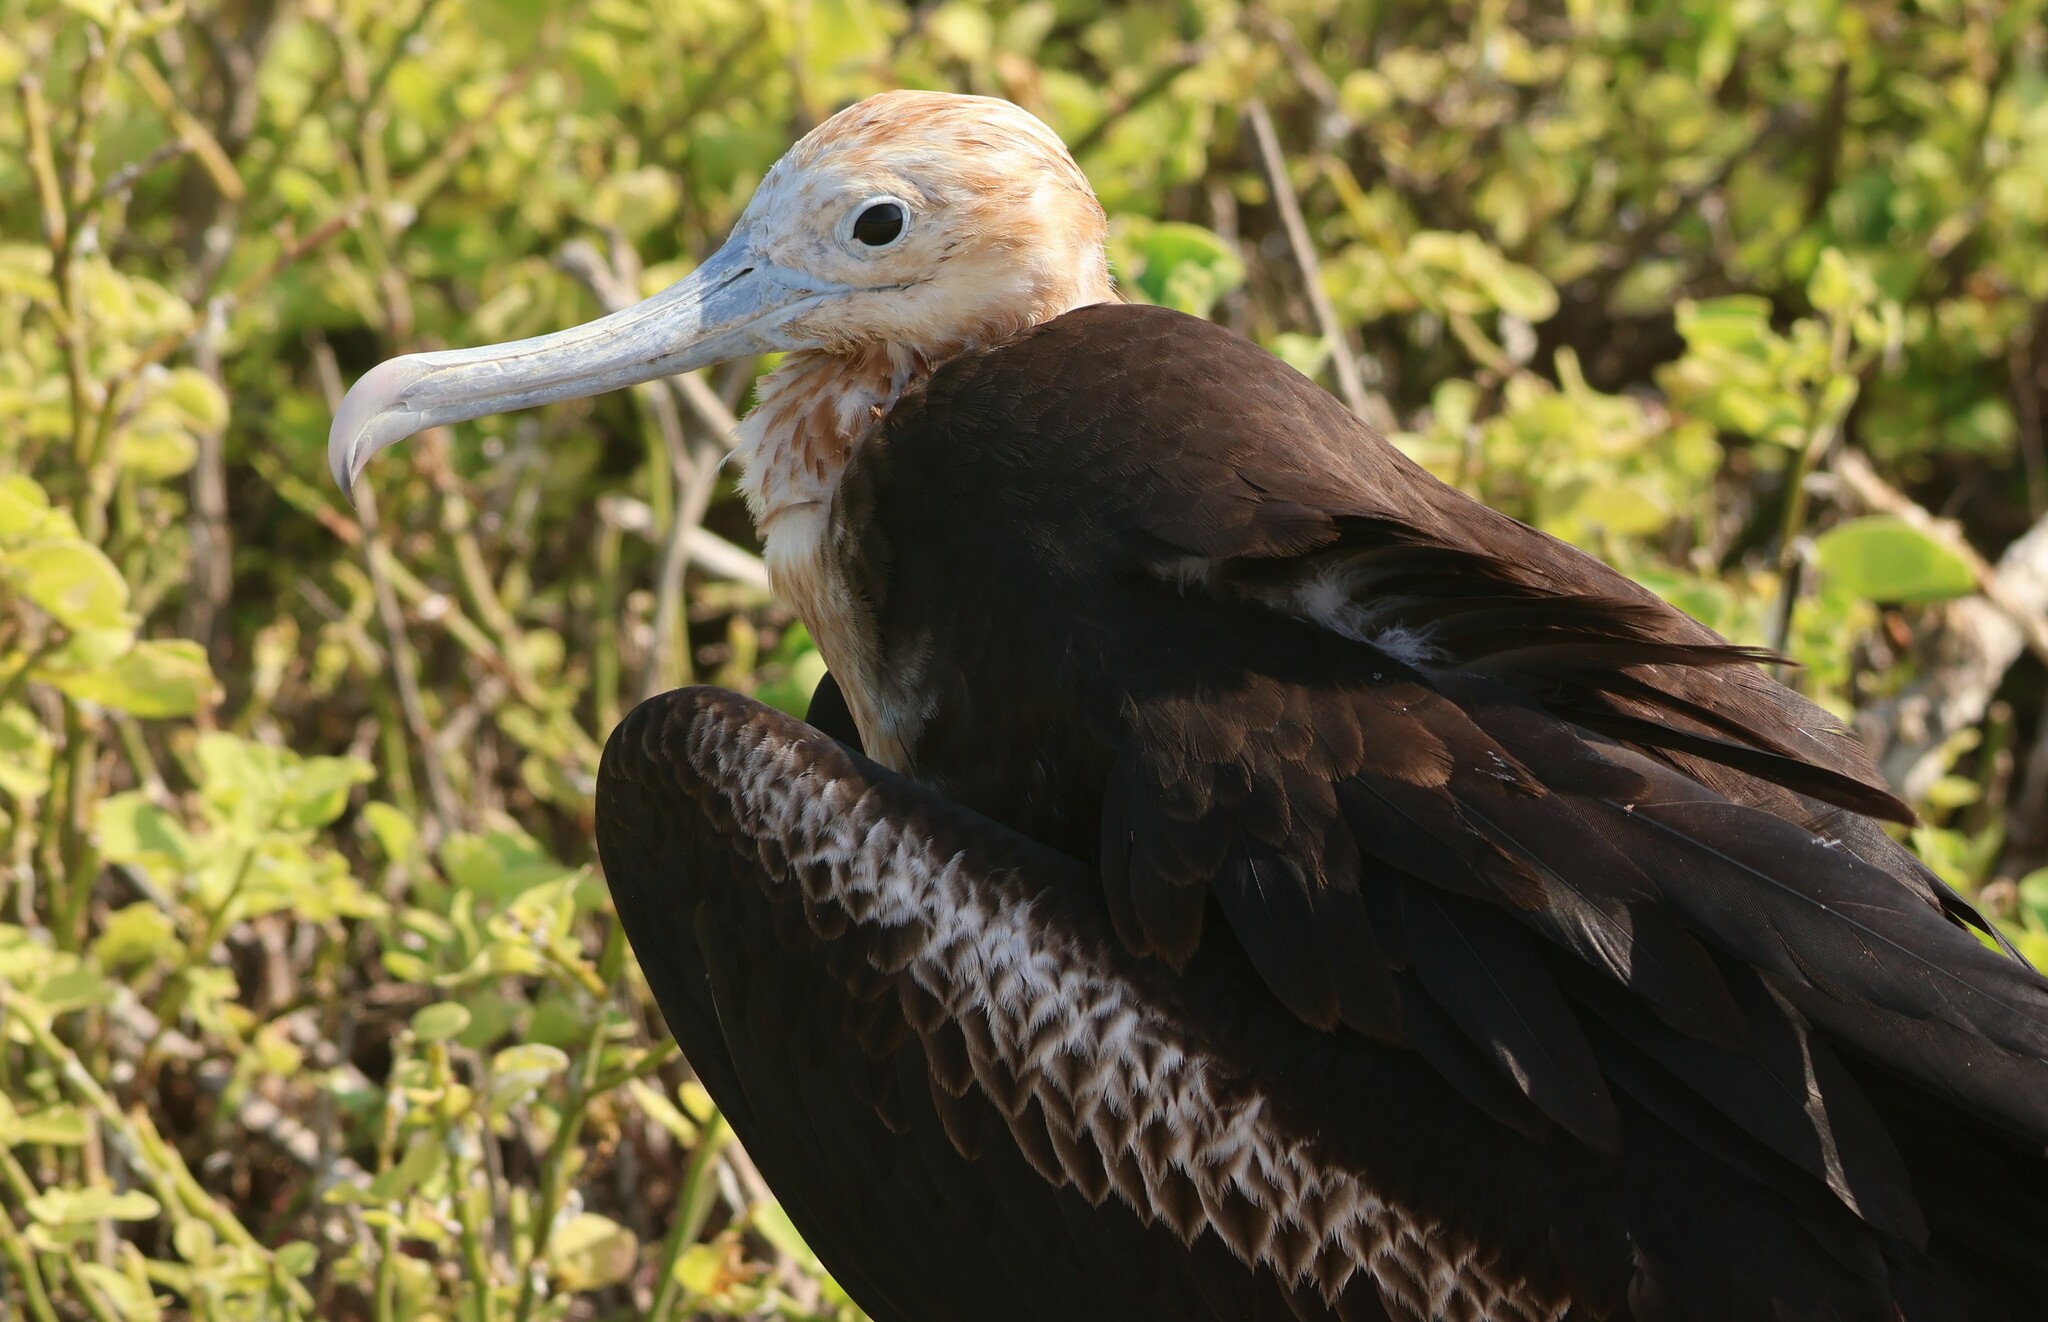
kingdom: Animalia
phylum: Chordata
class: Aves
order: Suliformes
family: Fregatidae
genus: Fregata
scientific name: Fregata minor
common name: Great frigatebird
